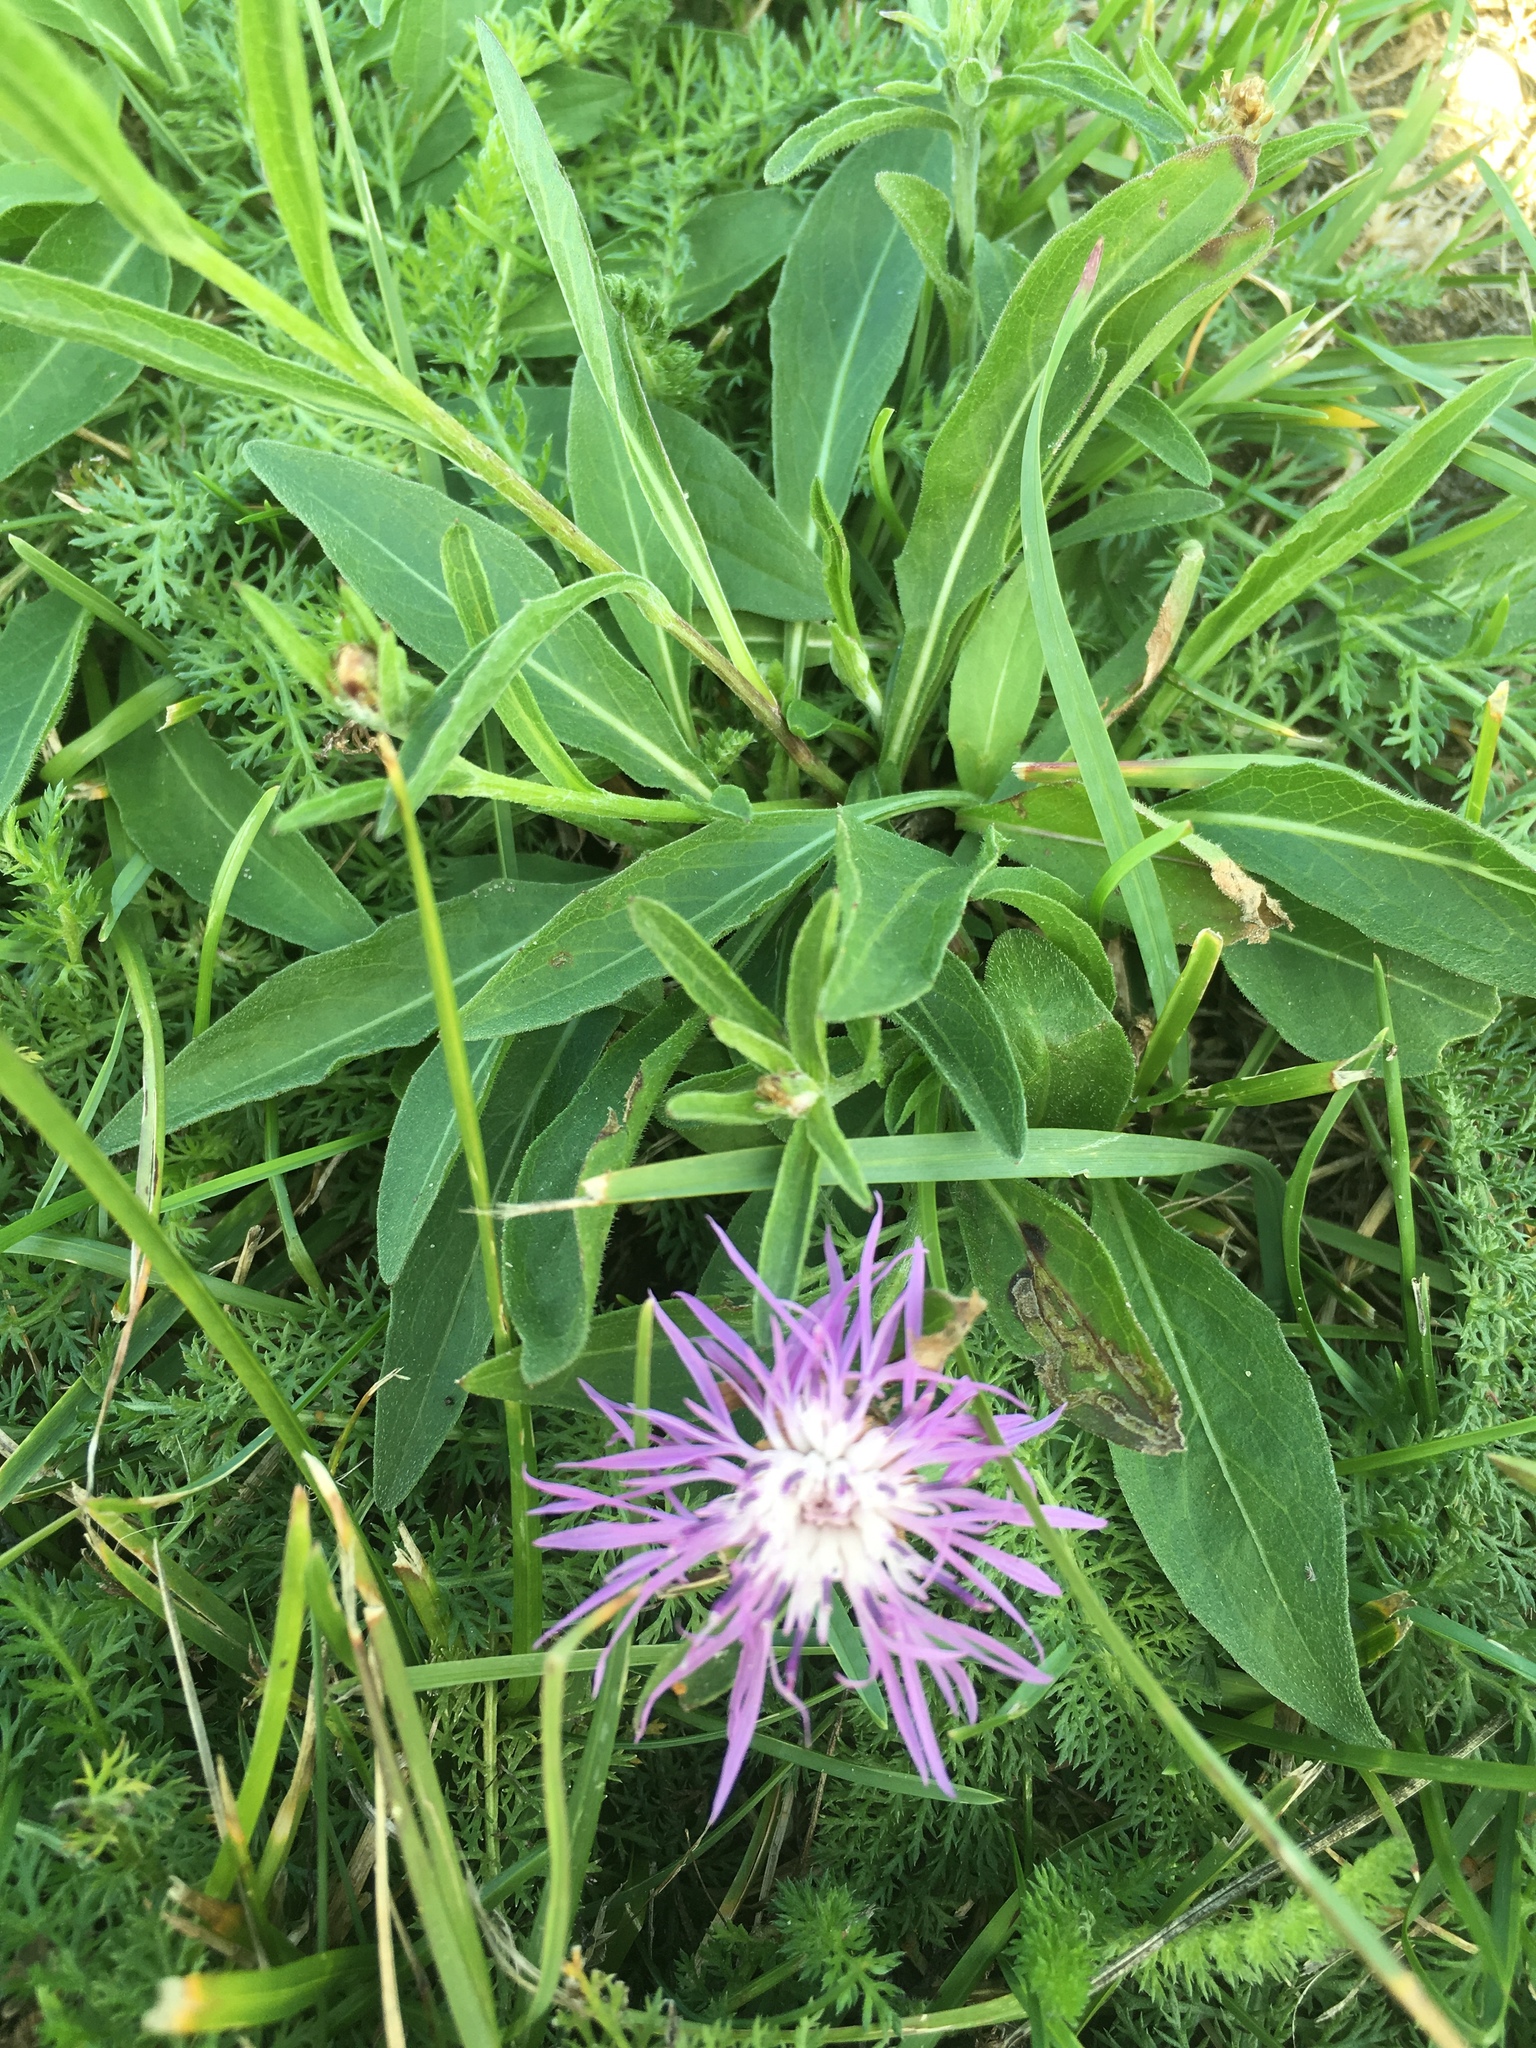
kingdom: Plantae
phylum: Tracheophyta
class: Magnoliopsida
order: Asterales
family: Asteraceae
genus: Centaurea
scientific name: Centaurea jacea
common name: Brown knapweed
